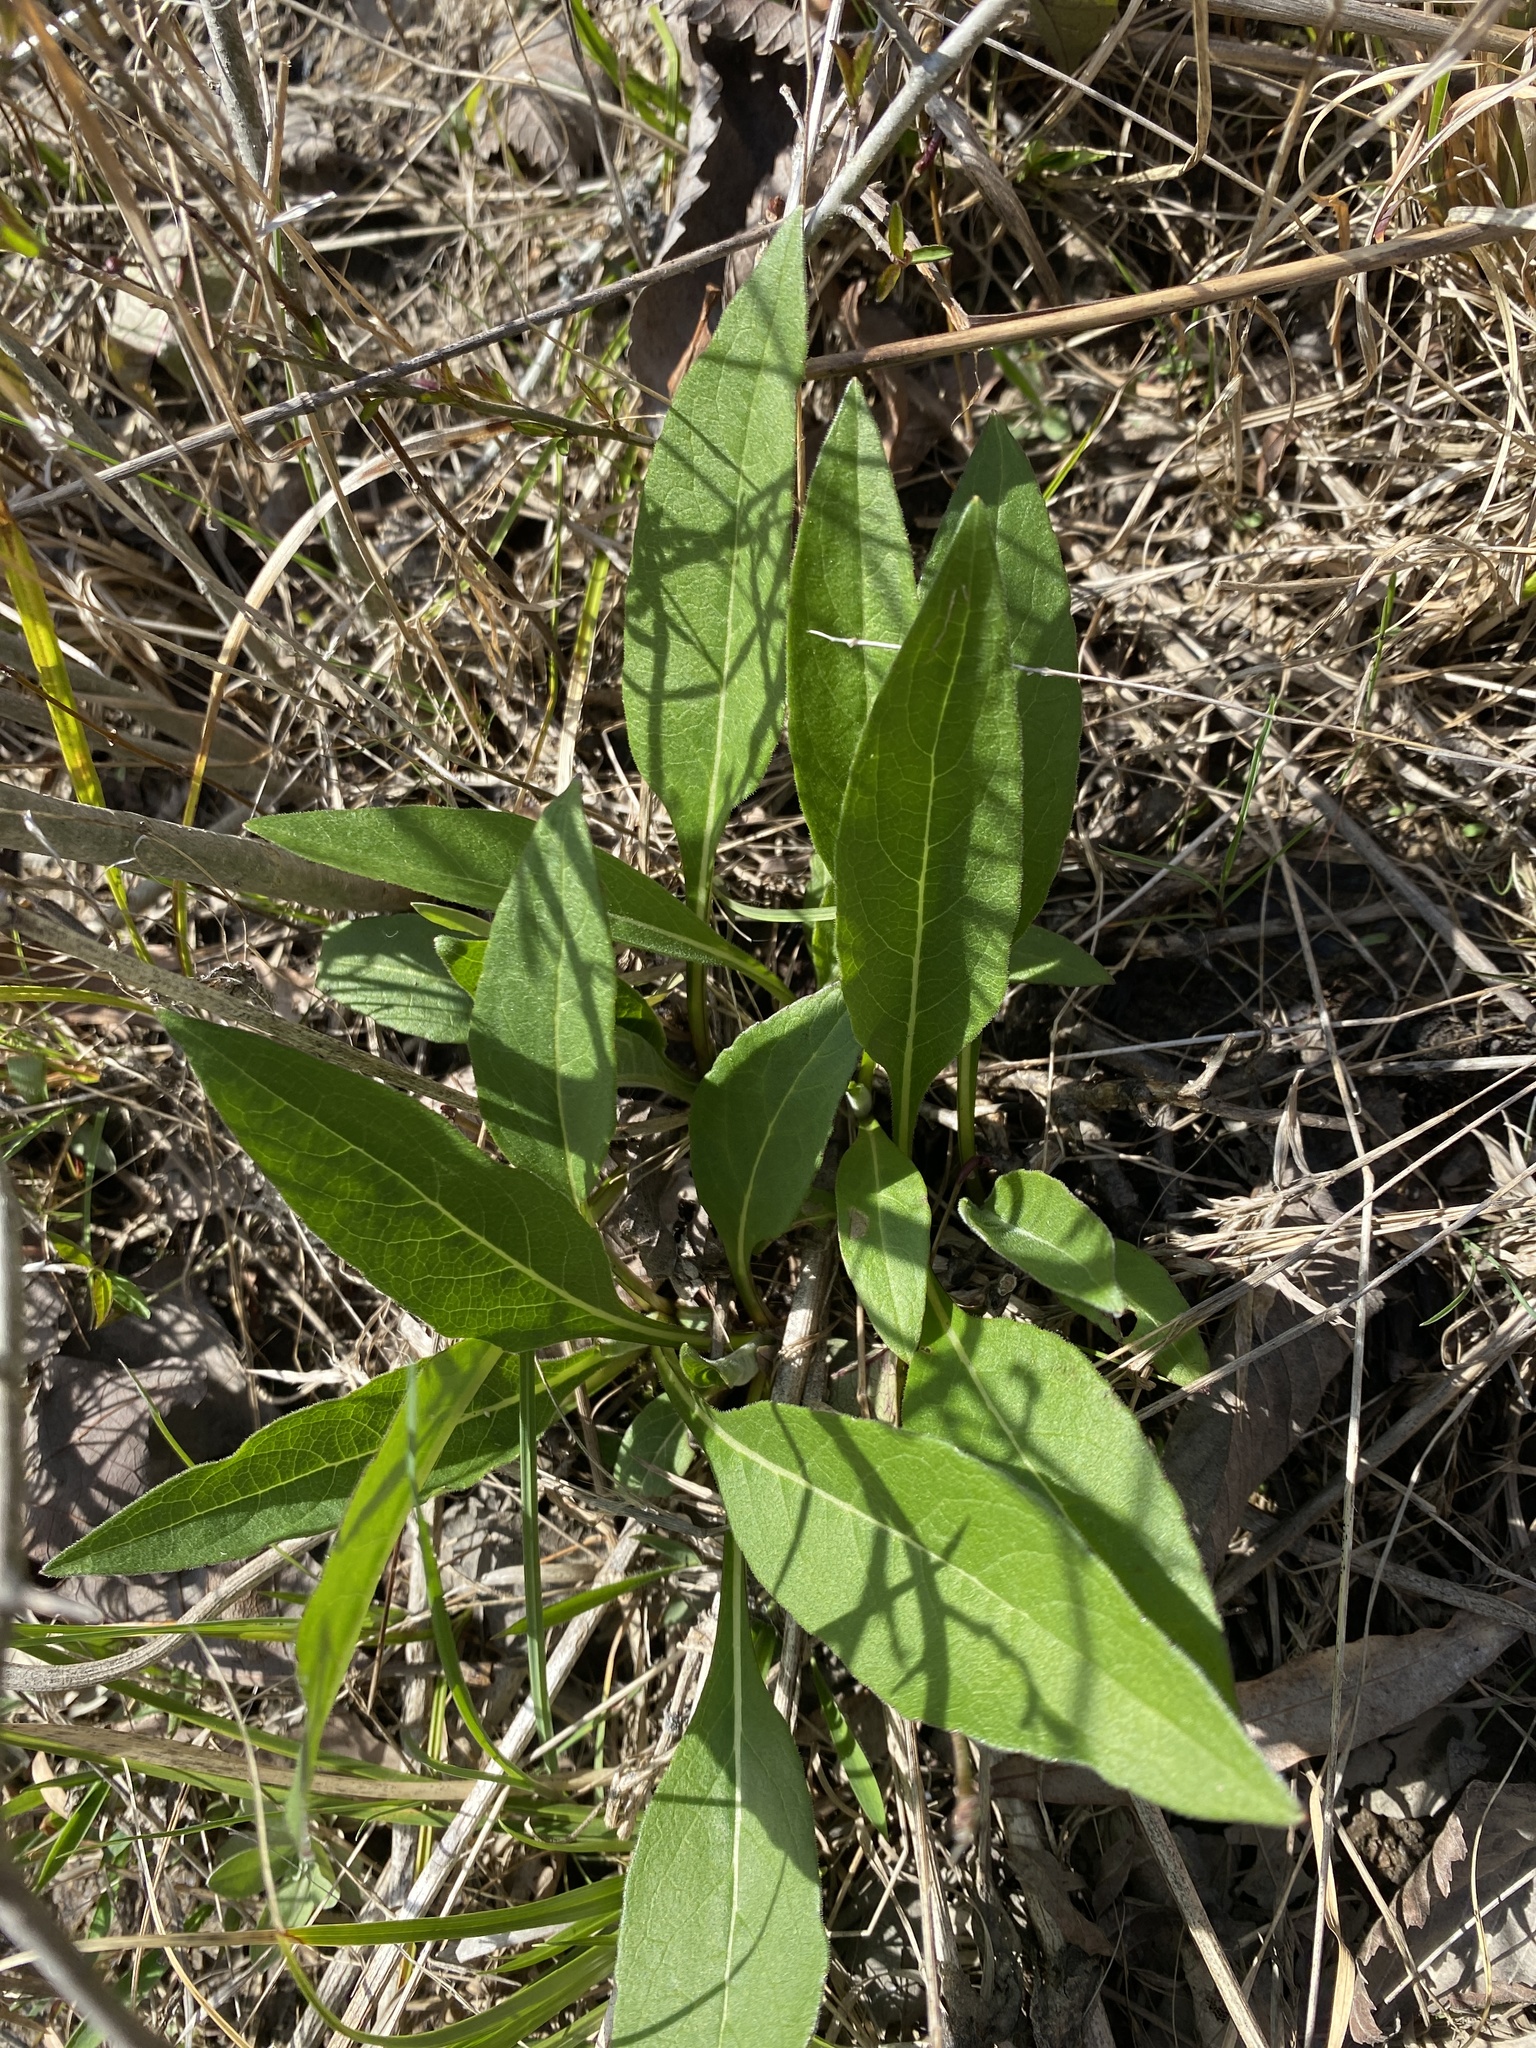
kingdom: Plantae
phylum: Tracheophyta
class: Magnoliopsida
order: Asterales
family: Asteraceae
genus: Silphium
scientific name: Silphium integrifolium
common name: Whole-leaf rosinweed
